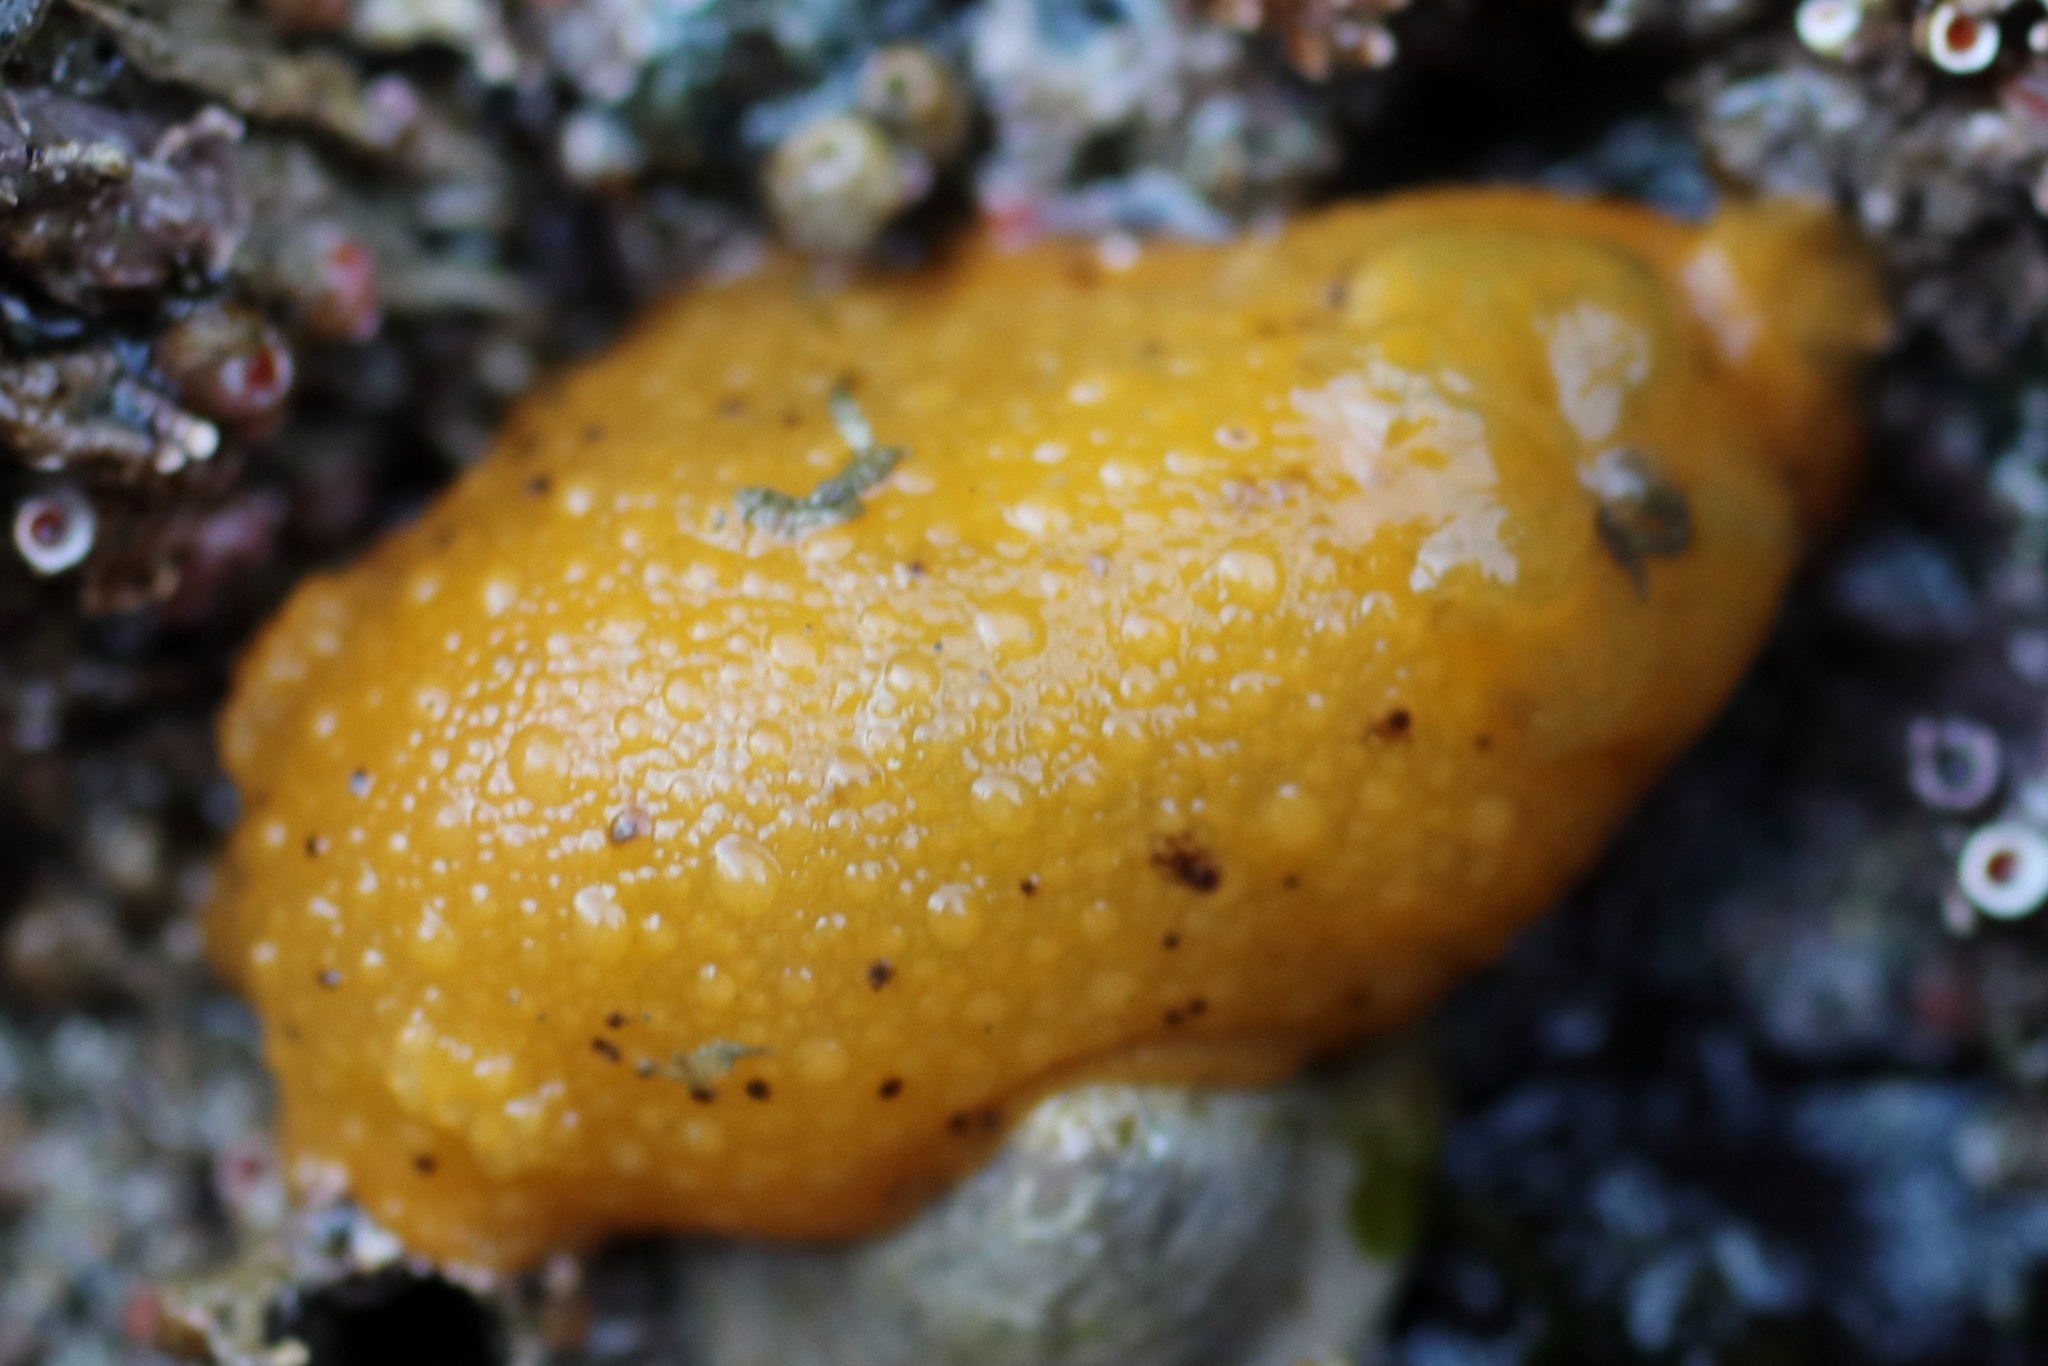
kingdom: Animalia
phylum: Mollusca
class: Gastropoda
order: Nudibranchia
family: Dorididae
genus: Doris
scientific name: Doris montereyensis
